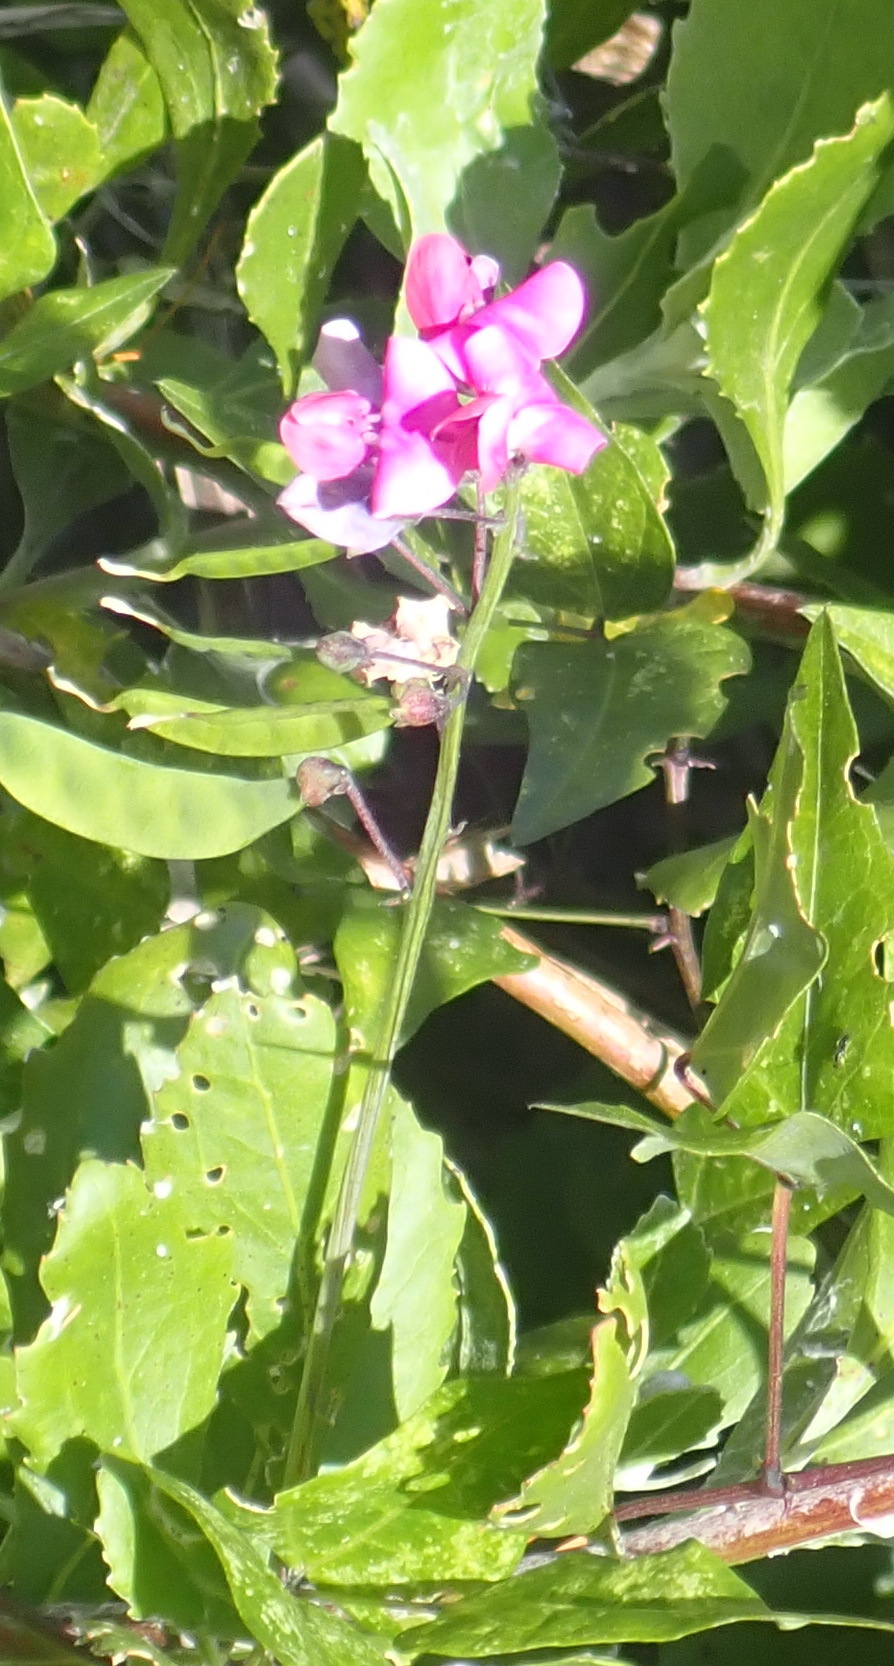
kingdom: Plantae
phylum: Tracheophyta
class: Magnoliopsida
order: Fabales
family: Fabaceae
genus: Dipogon
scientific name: Dipogon lignosus
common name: Okie bean
